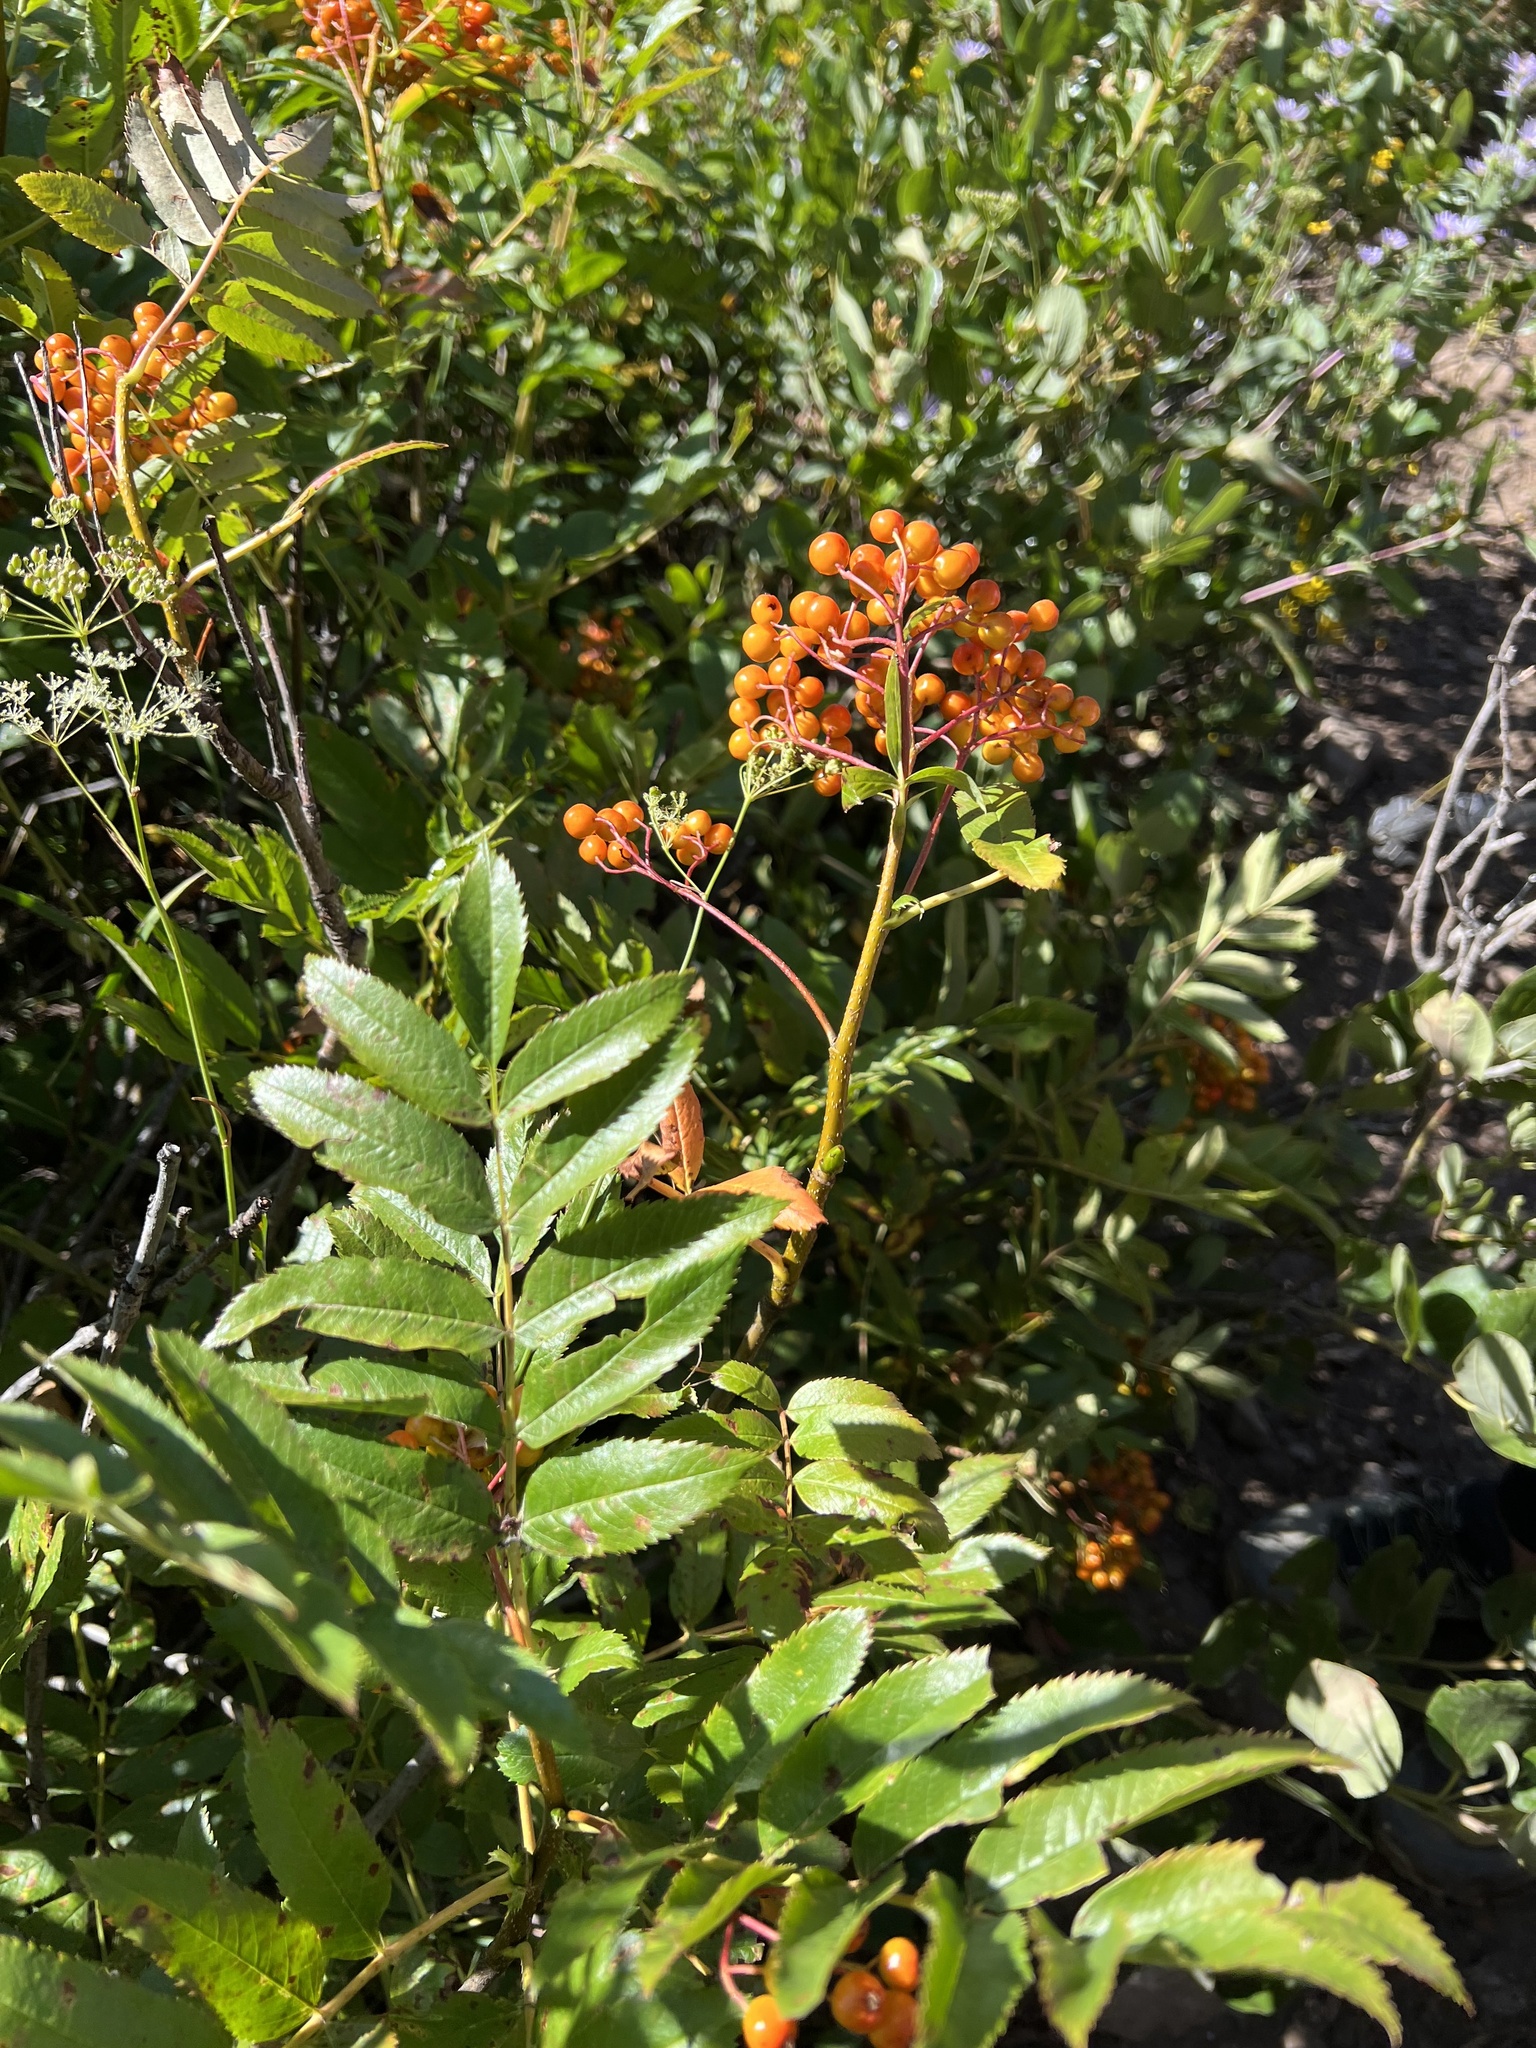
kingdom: Plantae
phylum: Tracheophyta
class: Magnoliopsida
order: Rosales
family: Rosaceae
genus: Sorbus
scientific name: Sorbus scopulina
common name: Greene's mountain-ash
